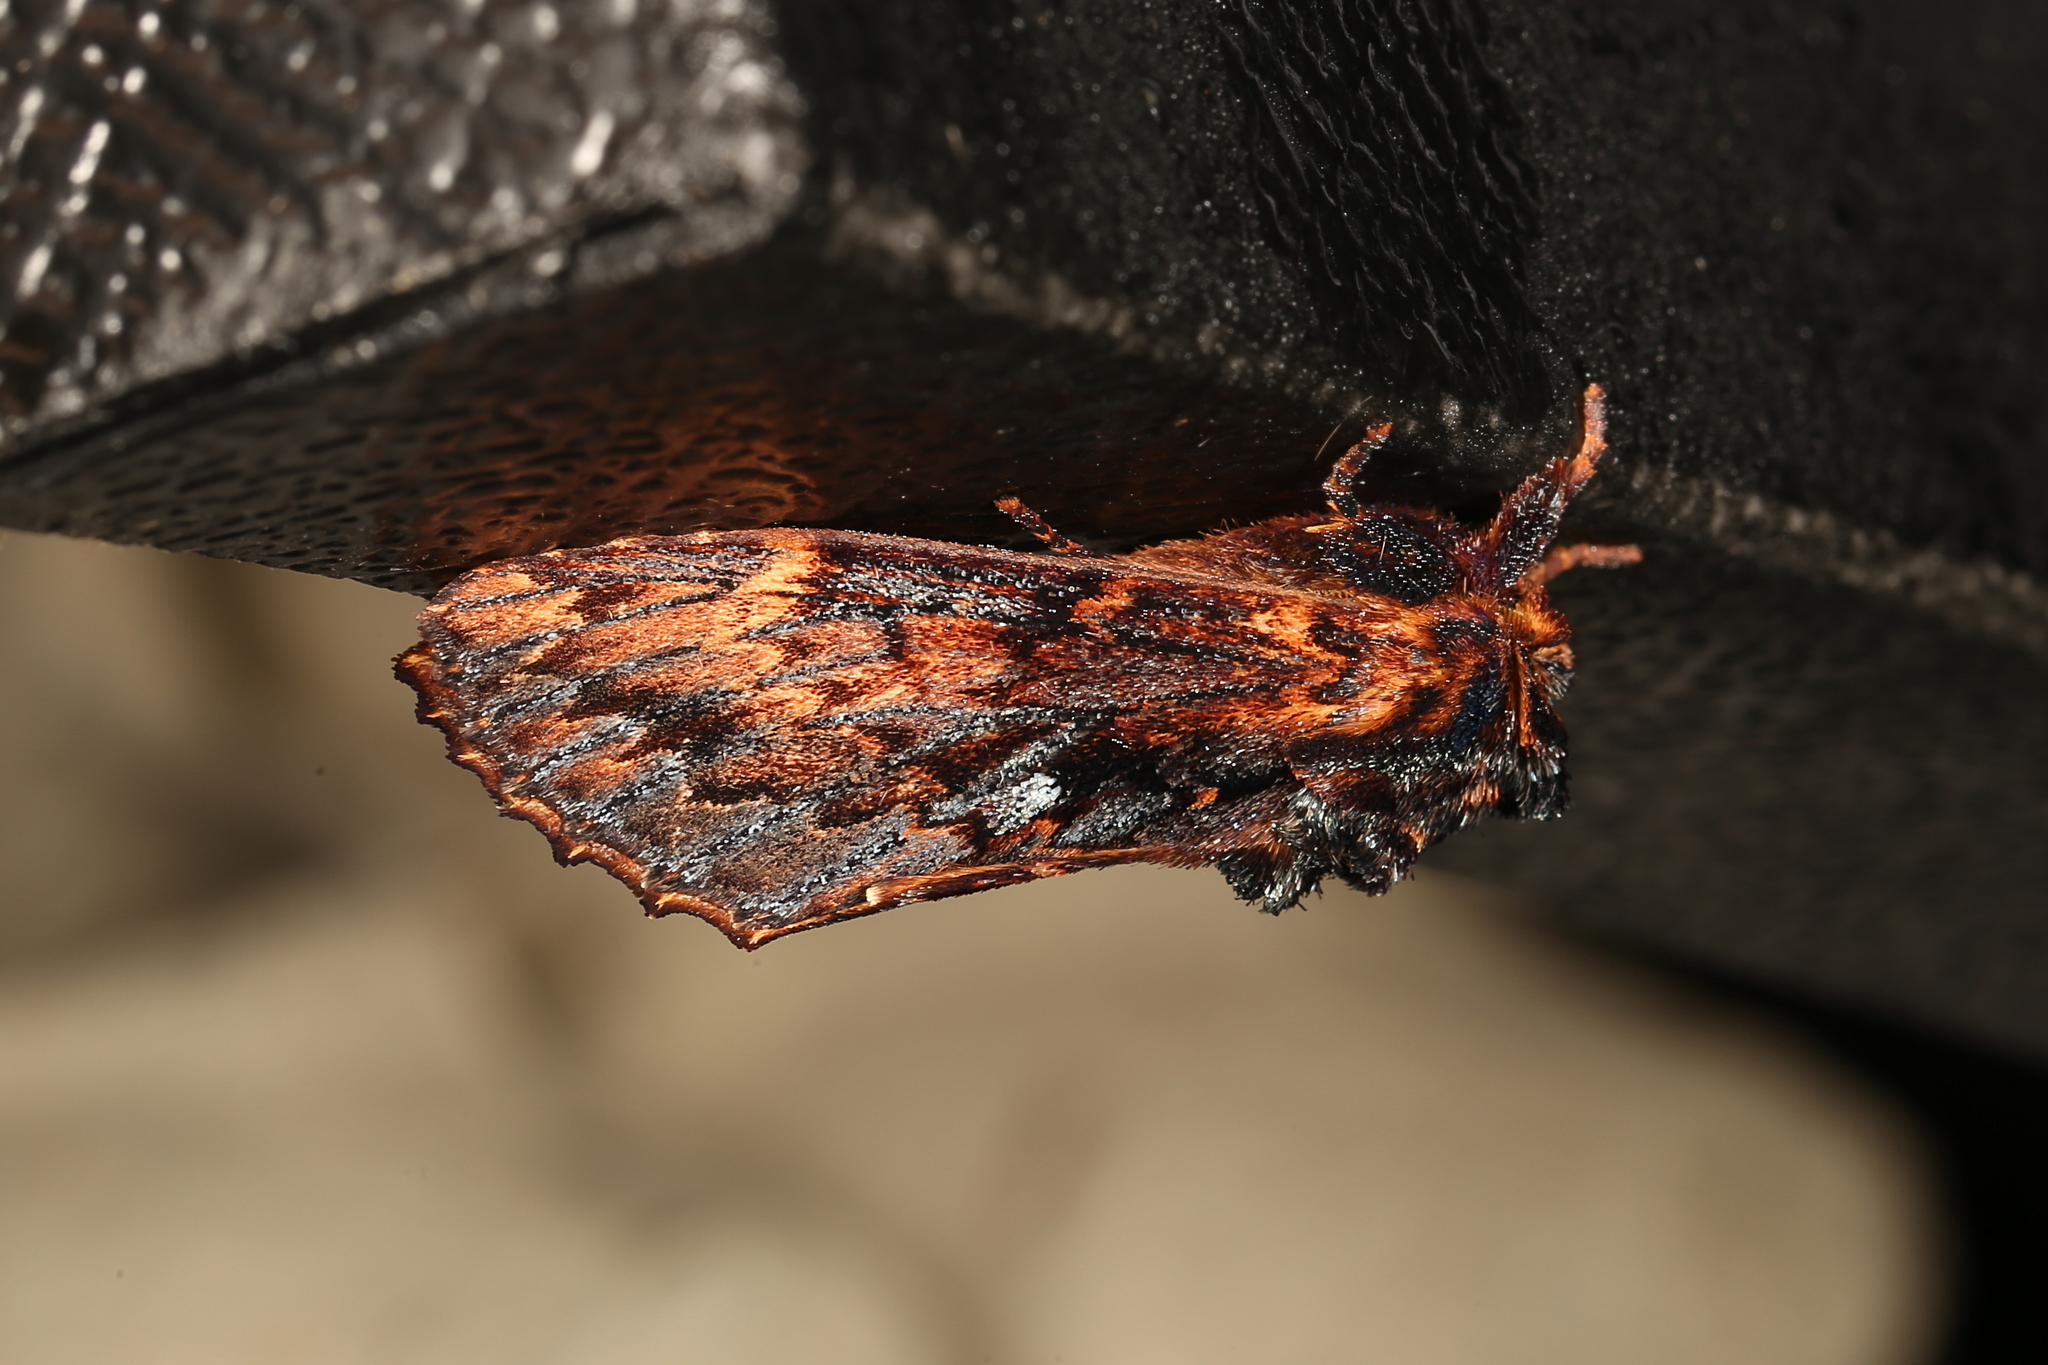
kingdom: Animalia
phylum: Arthropoda
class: Insecta
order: Lepidoptera
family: Notodontidae
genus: Sorama
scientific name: Sorama bicolor
